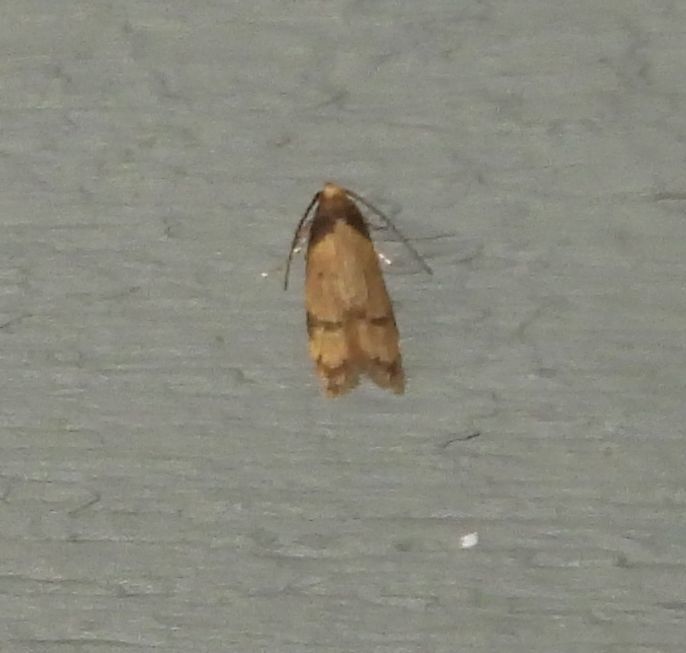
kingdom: Animalia
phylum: Arthropoda
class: Insecta
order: Lepidoptera
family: Autostichidae
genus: Gerdana
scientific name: Gerdana caritella
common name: Gerdana moth
